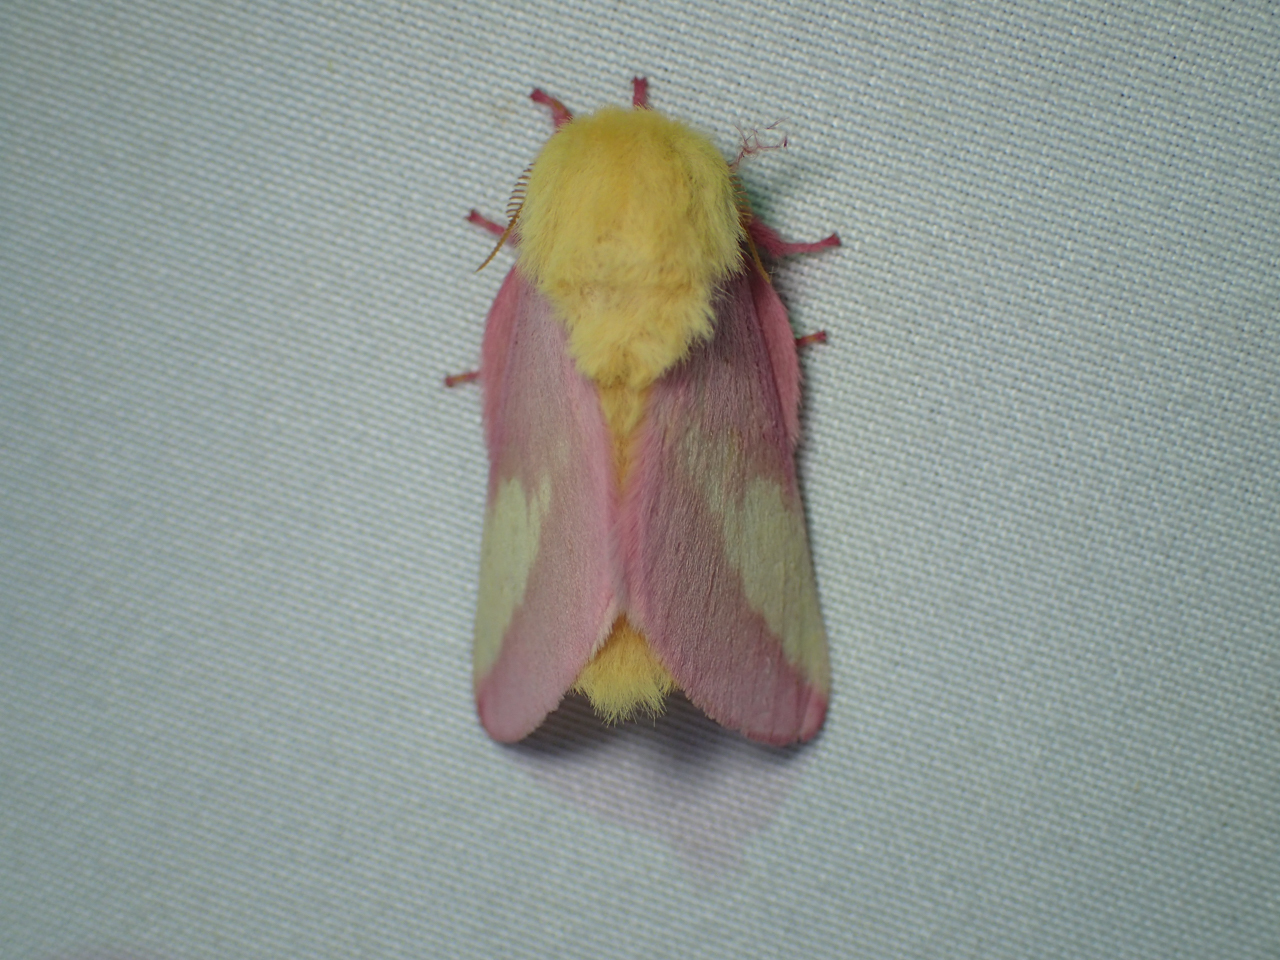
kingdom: Animalia
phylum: Arthropoda
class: Insecta
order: Lepidoptera
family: Saturniidae
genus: Dryocampa
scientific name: Dryocampa rubicunda
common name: Rosy maple moth
